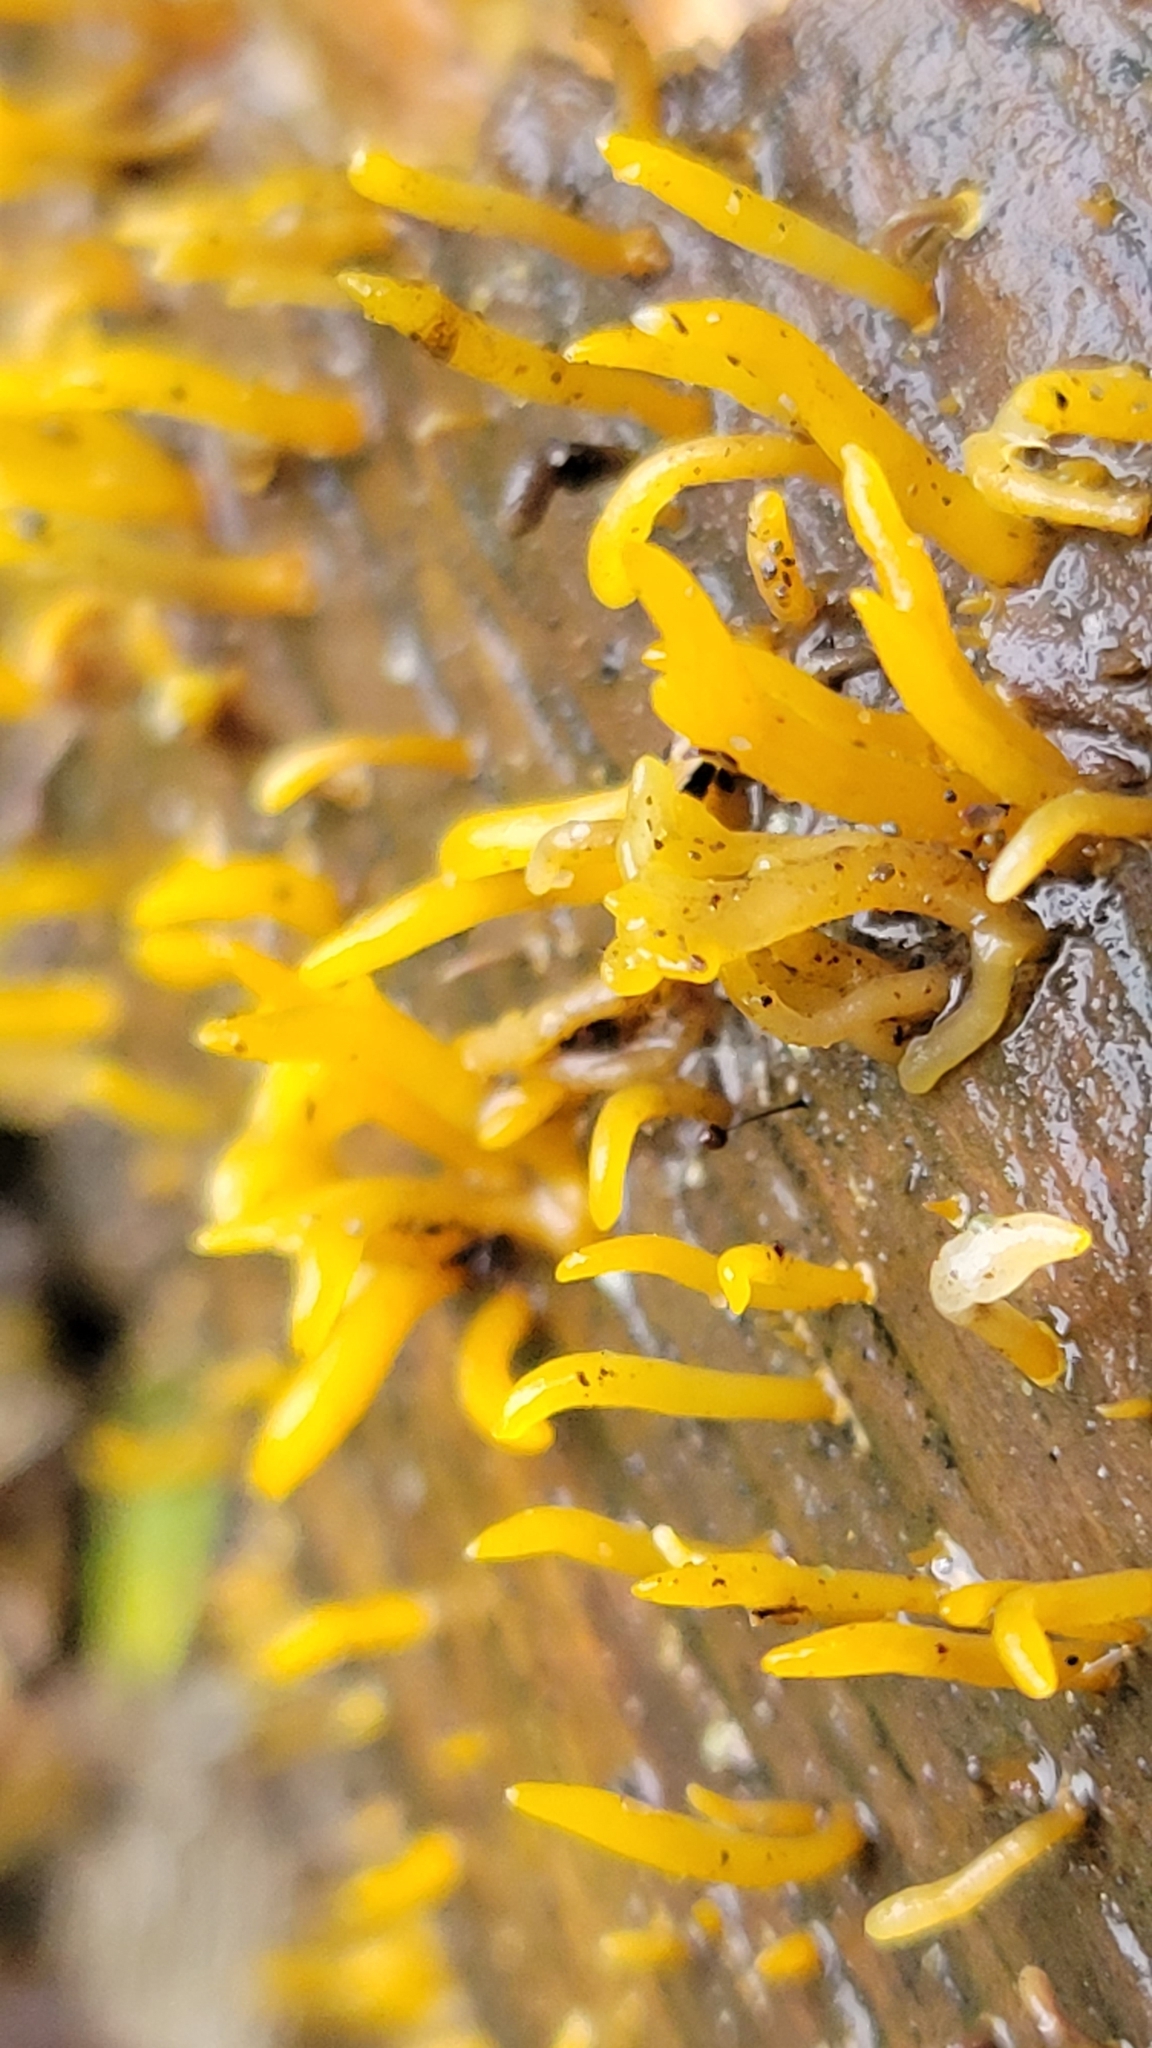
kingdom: Fungi
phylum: Basidiomycota
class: Dacrymycetes
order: Dacrymycetales
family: Dacrymycetaceae
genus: Calocera
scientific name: Calocera cornea
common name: Small stagshorn
